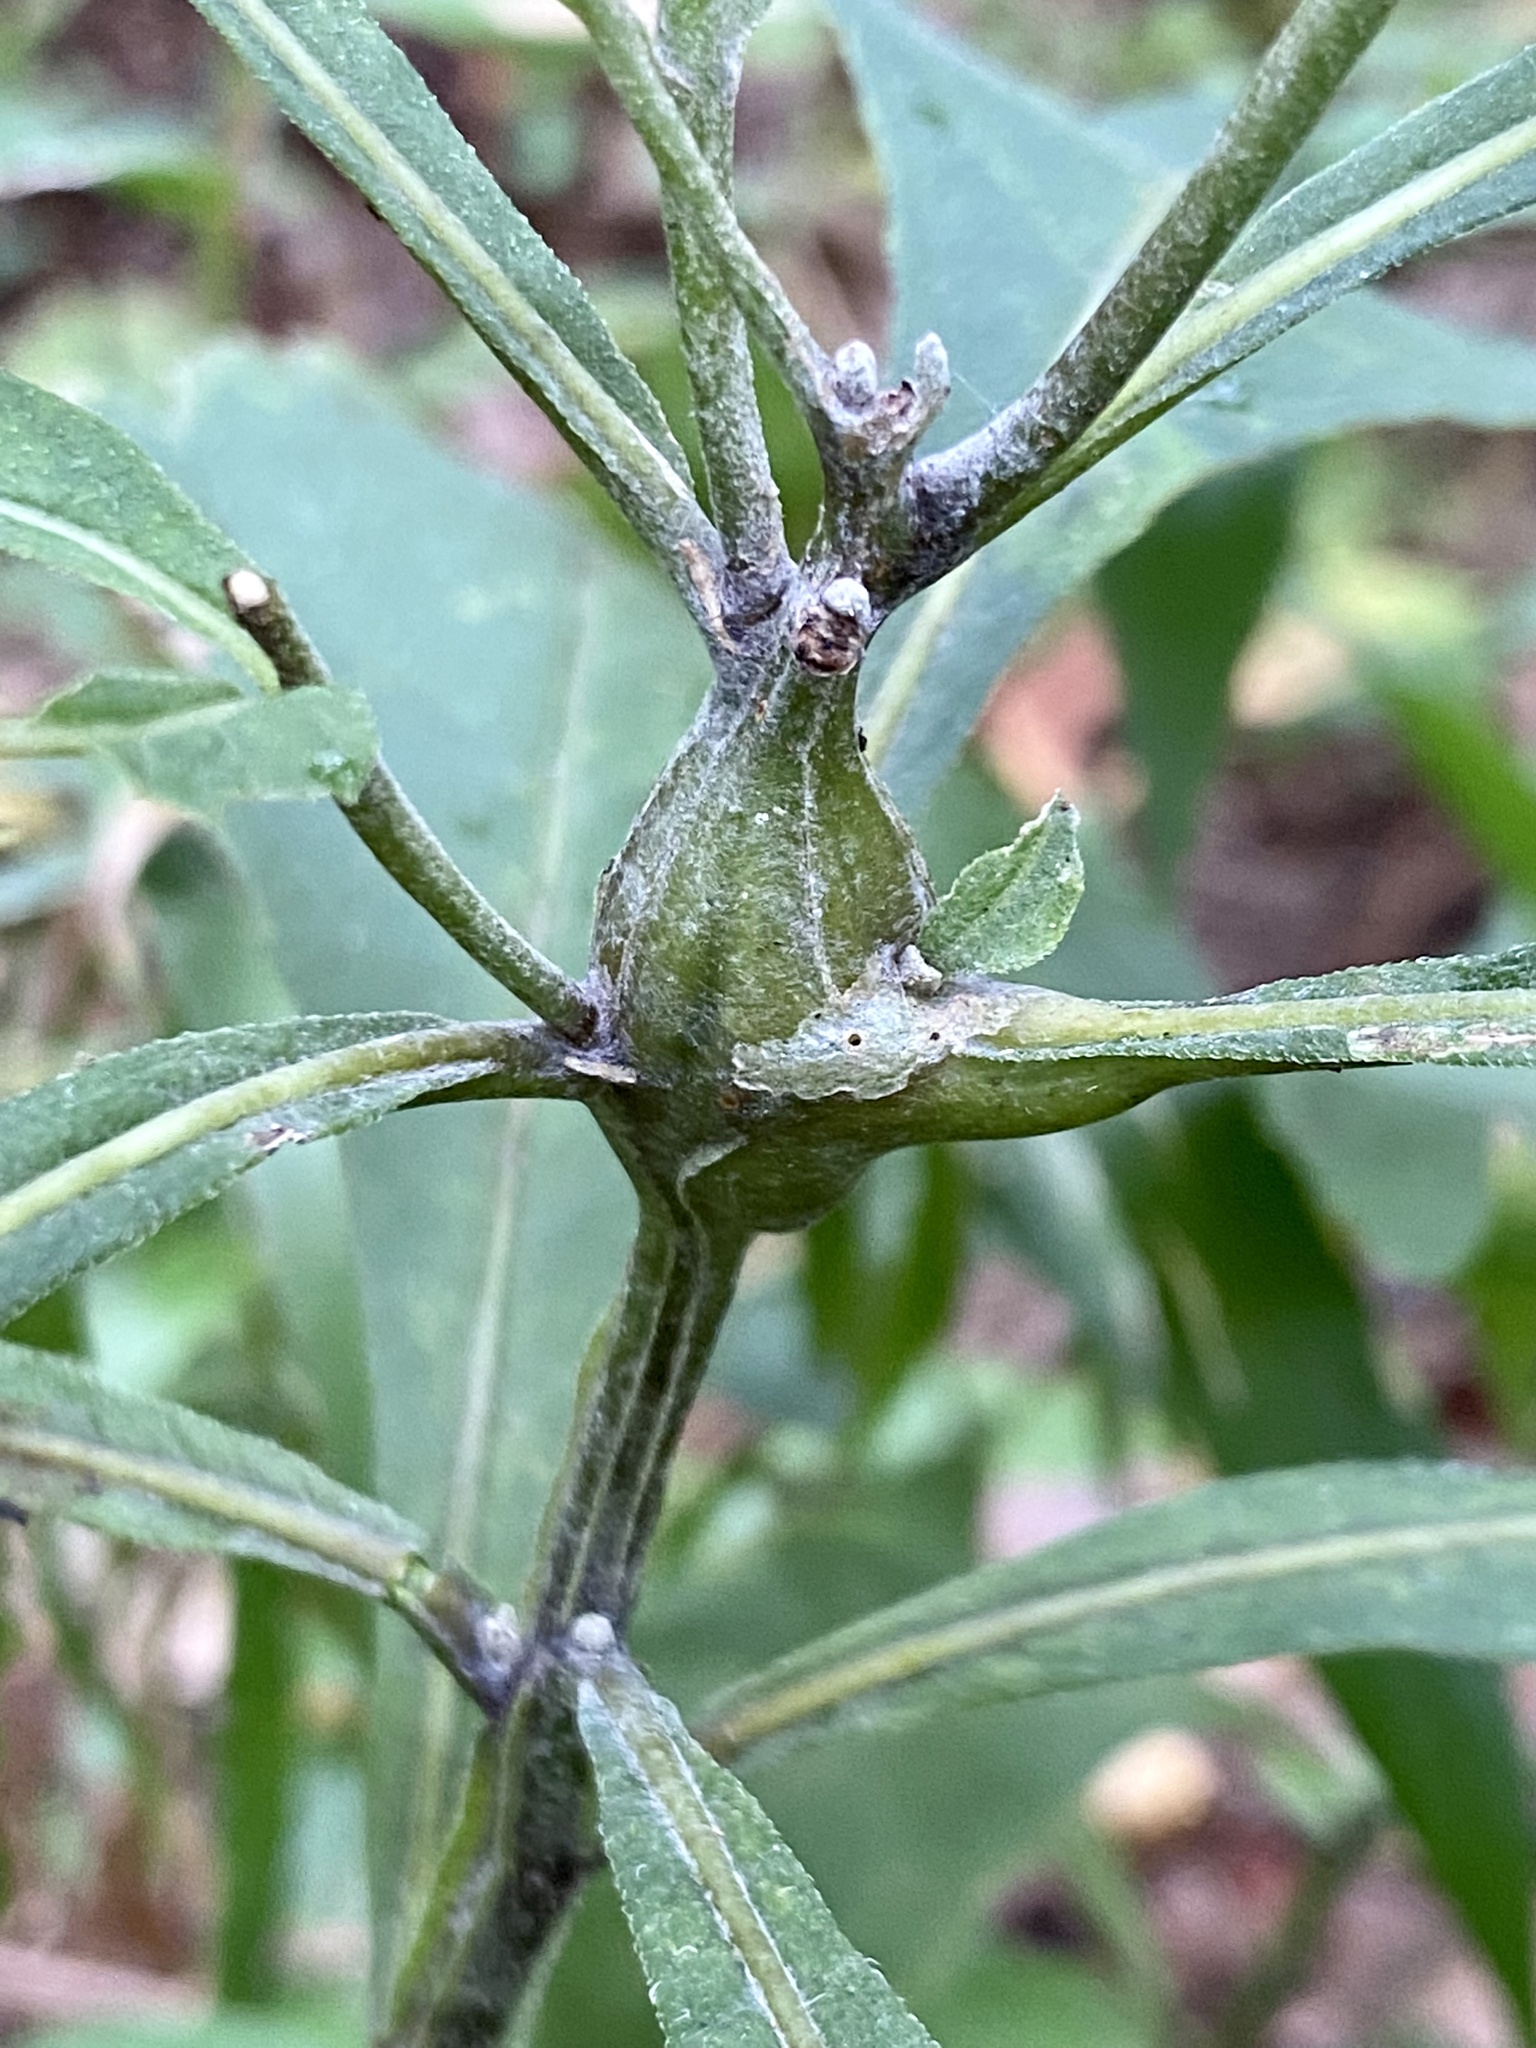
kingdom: Animalia
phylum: Arthropoda
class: Insecta
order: Diptera
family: Cecidomyiidae
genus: Neolasioptera
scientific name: Neolasioptera verbesinae
